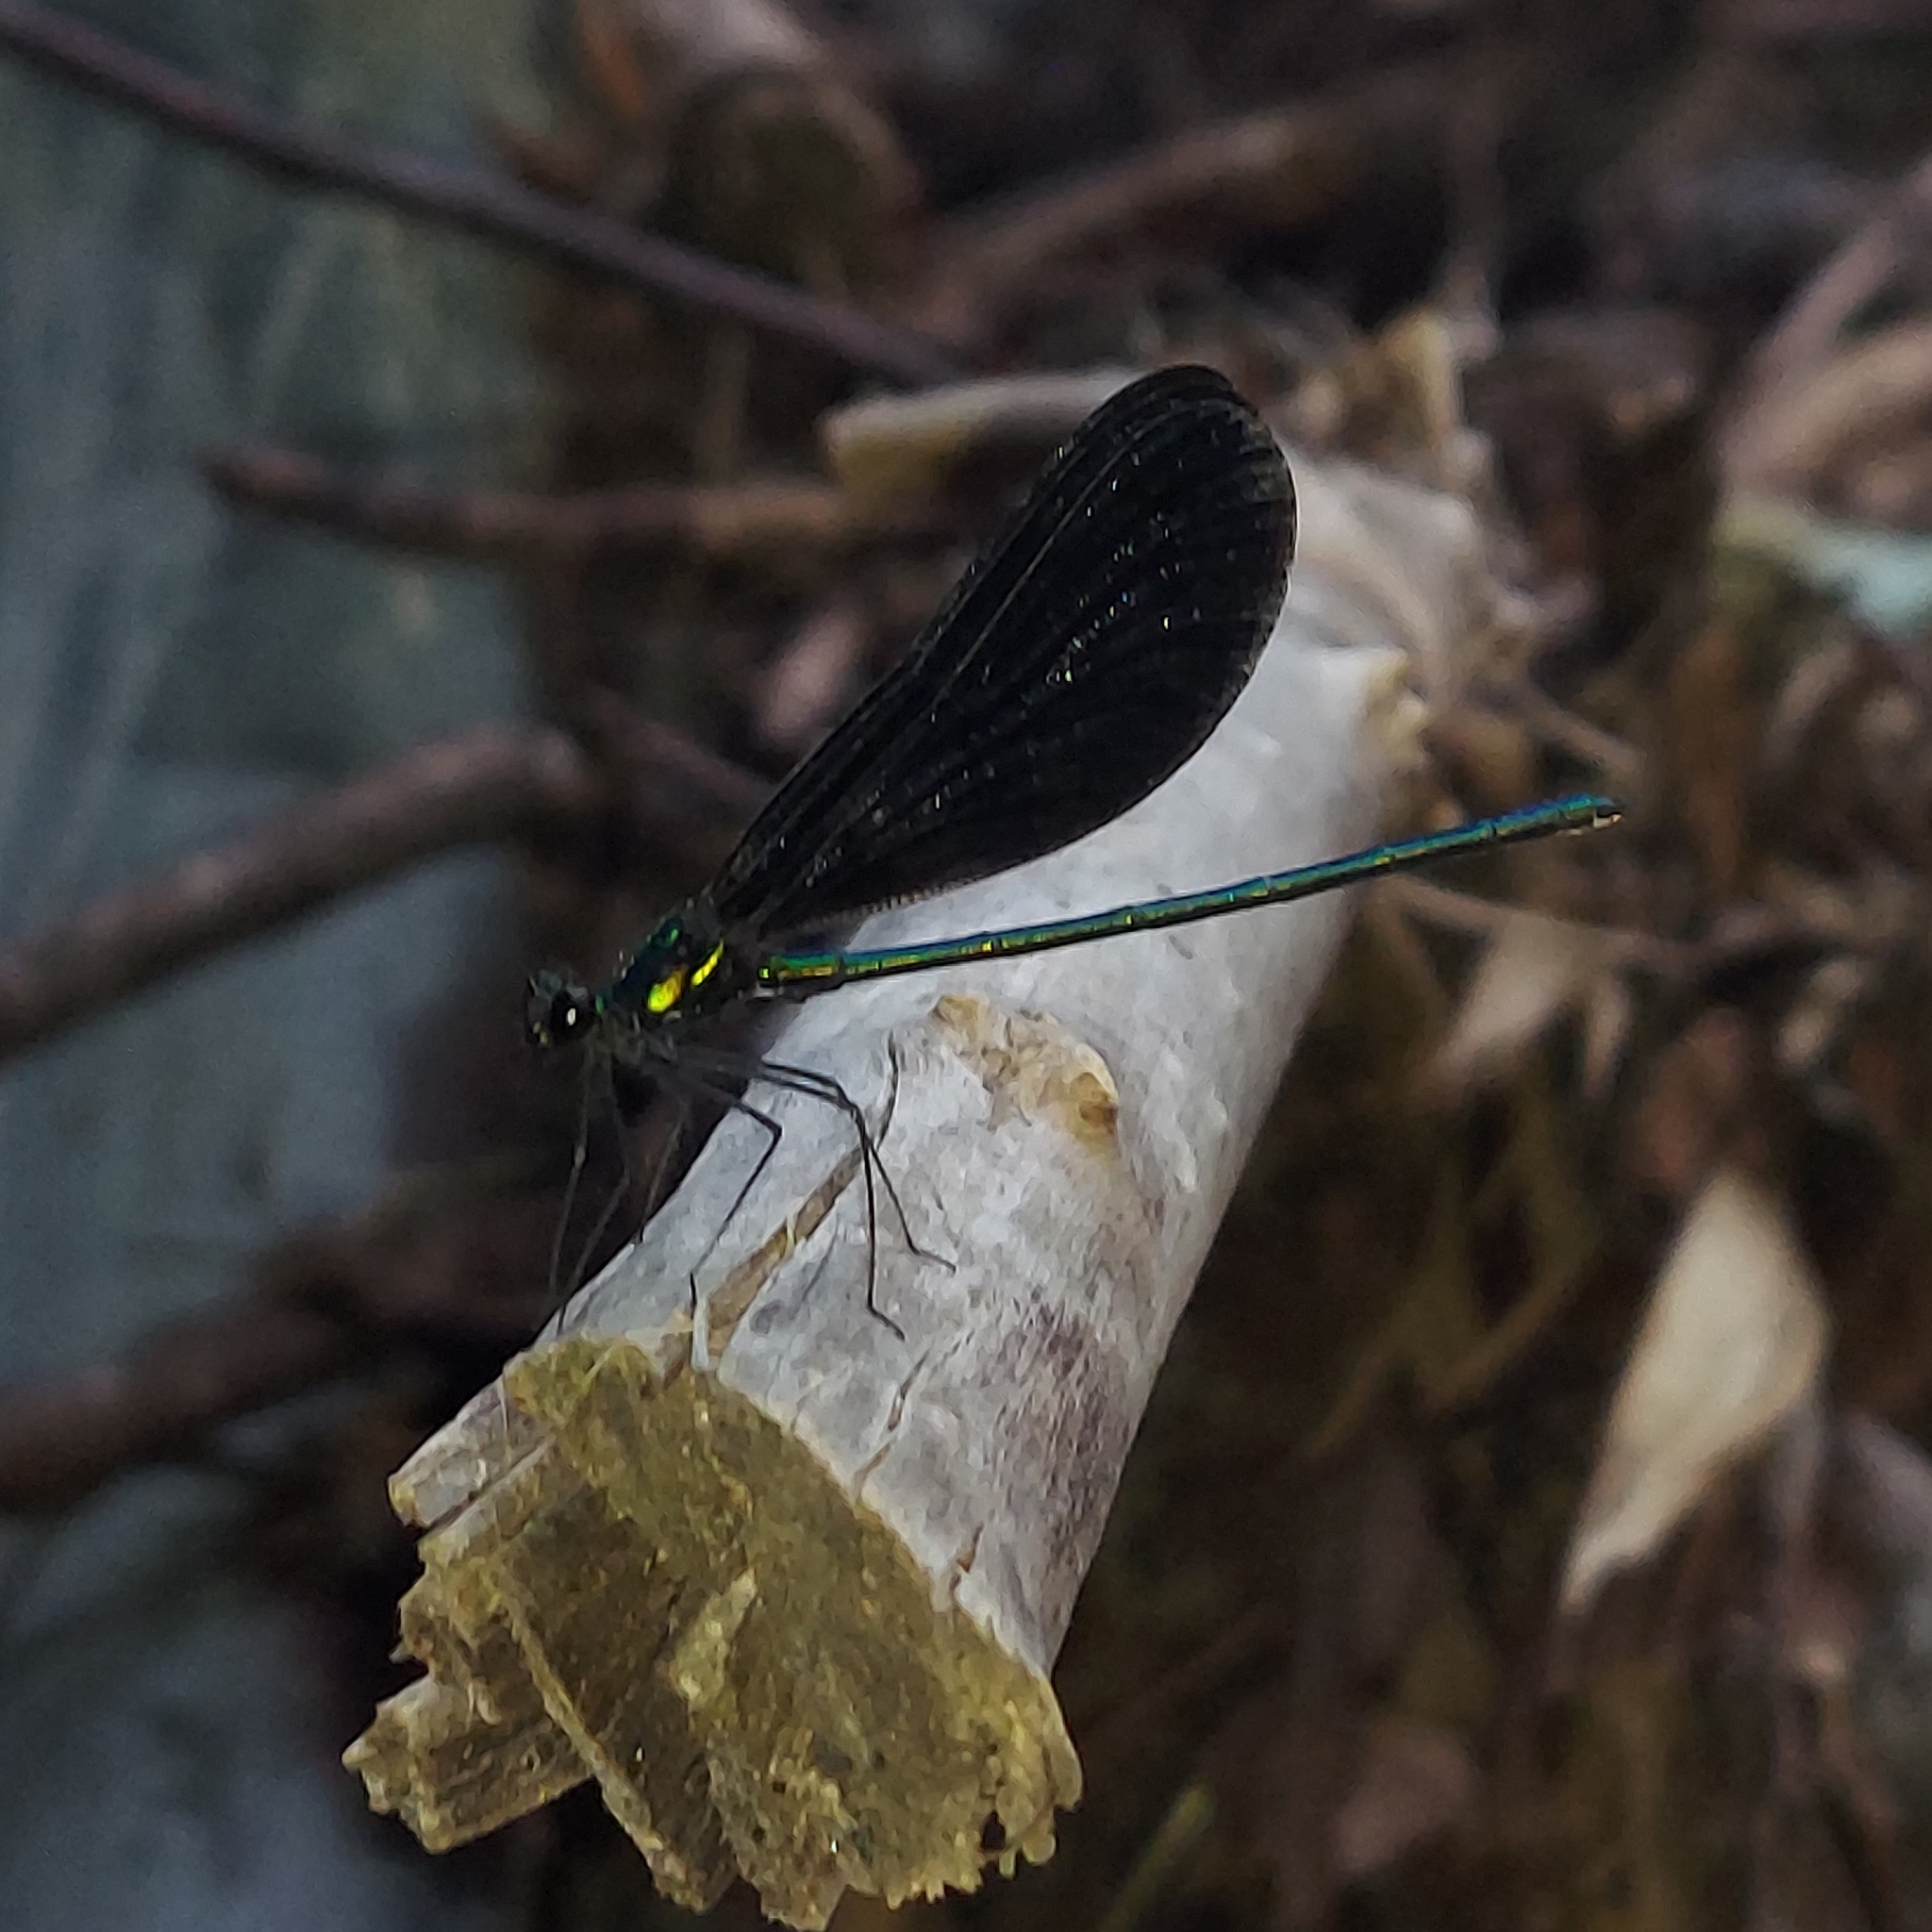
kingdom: Animalia
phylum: Arthropoda
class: Insecta
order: Odonata
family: Calopterygidae
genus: Calopteryx
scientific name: Calopteryx maculata
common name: Ebony jewelwing
